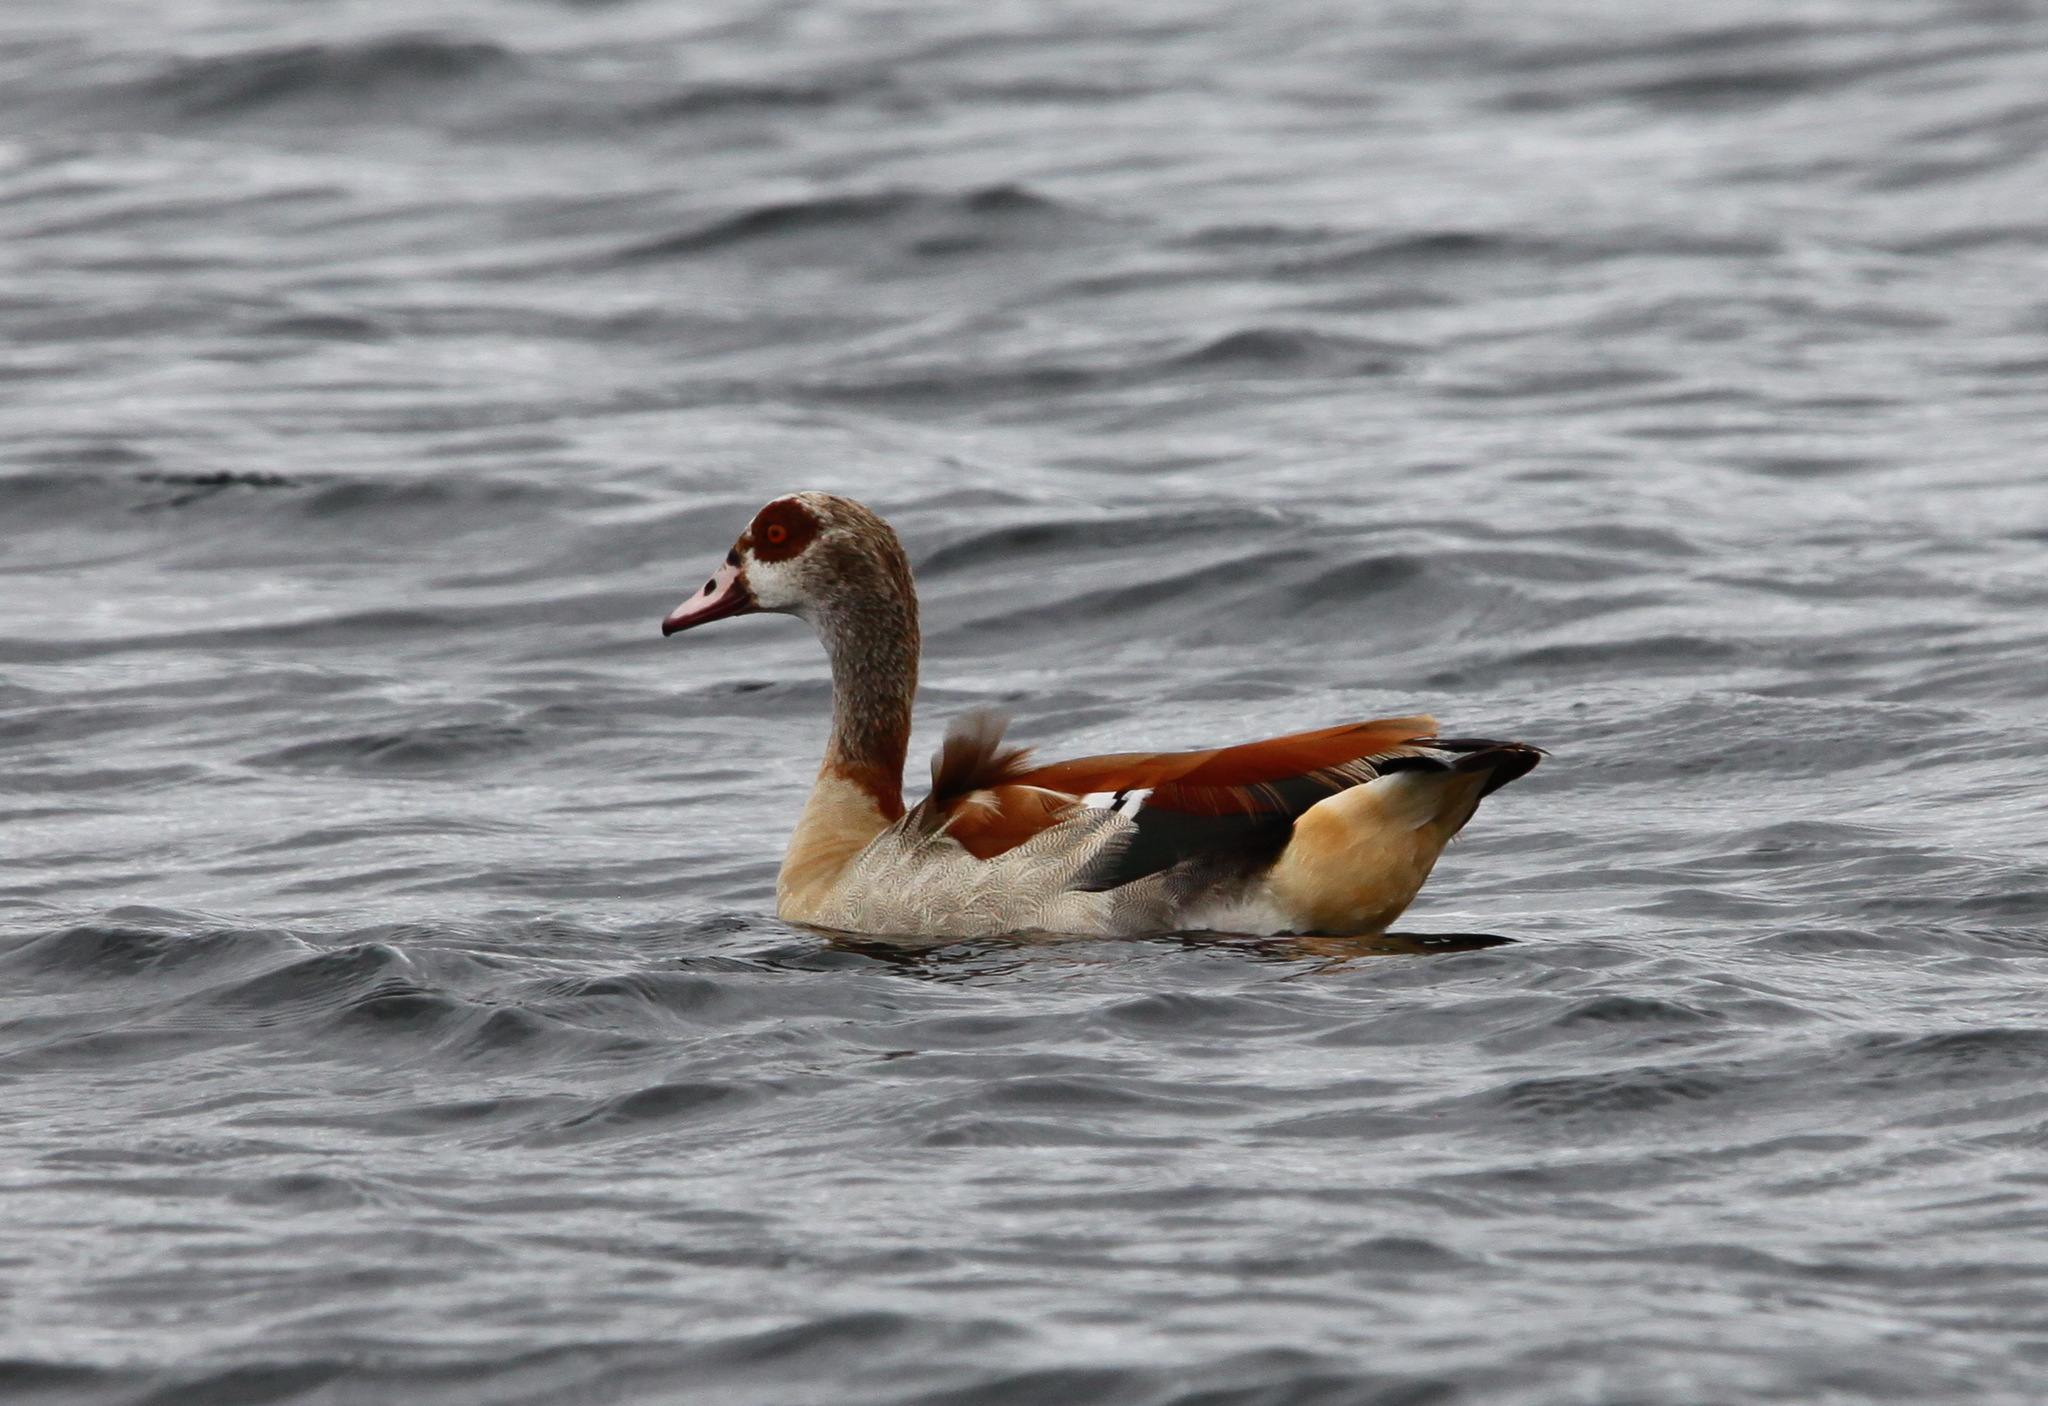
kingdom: Animalia
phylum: Chordata
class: Aves
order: Anseriformes
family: Anatidae
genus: Alopochen
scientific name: Alopochen aegyptiaca
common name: Egyptian goose
